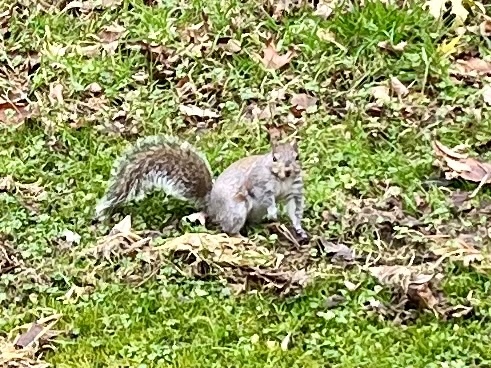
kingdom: Animalia
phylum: Chordata
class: Mammalia
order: Rodentia
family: Sciuridae
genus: Sciurus
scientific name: Sciurus carolinensis
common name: Eastern gray squirrel
